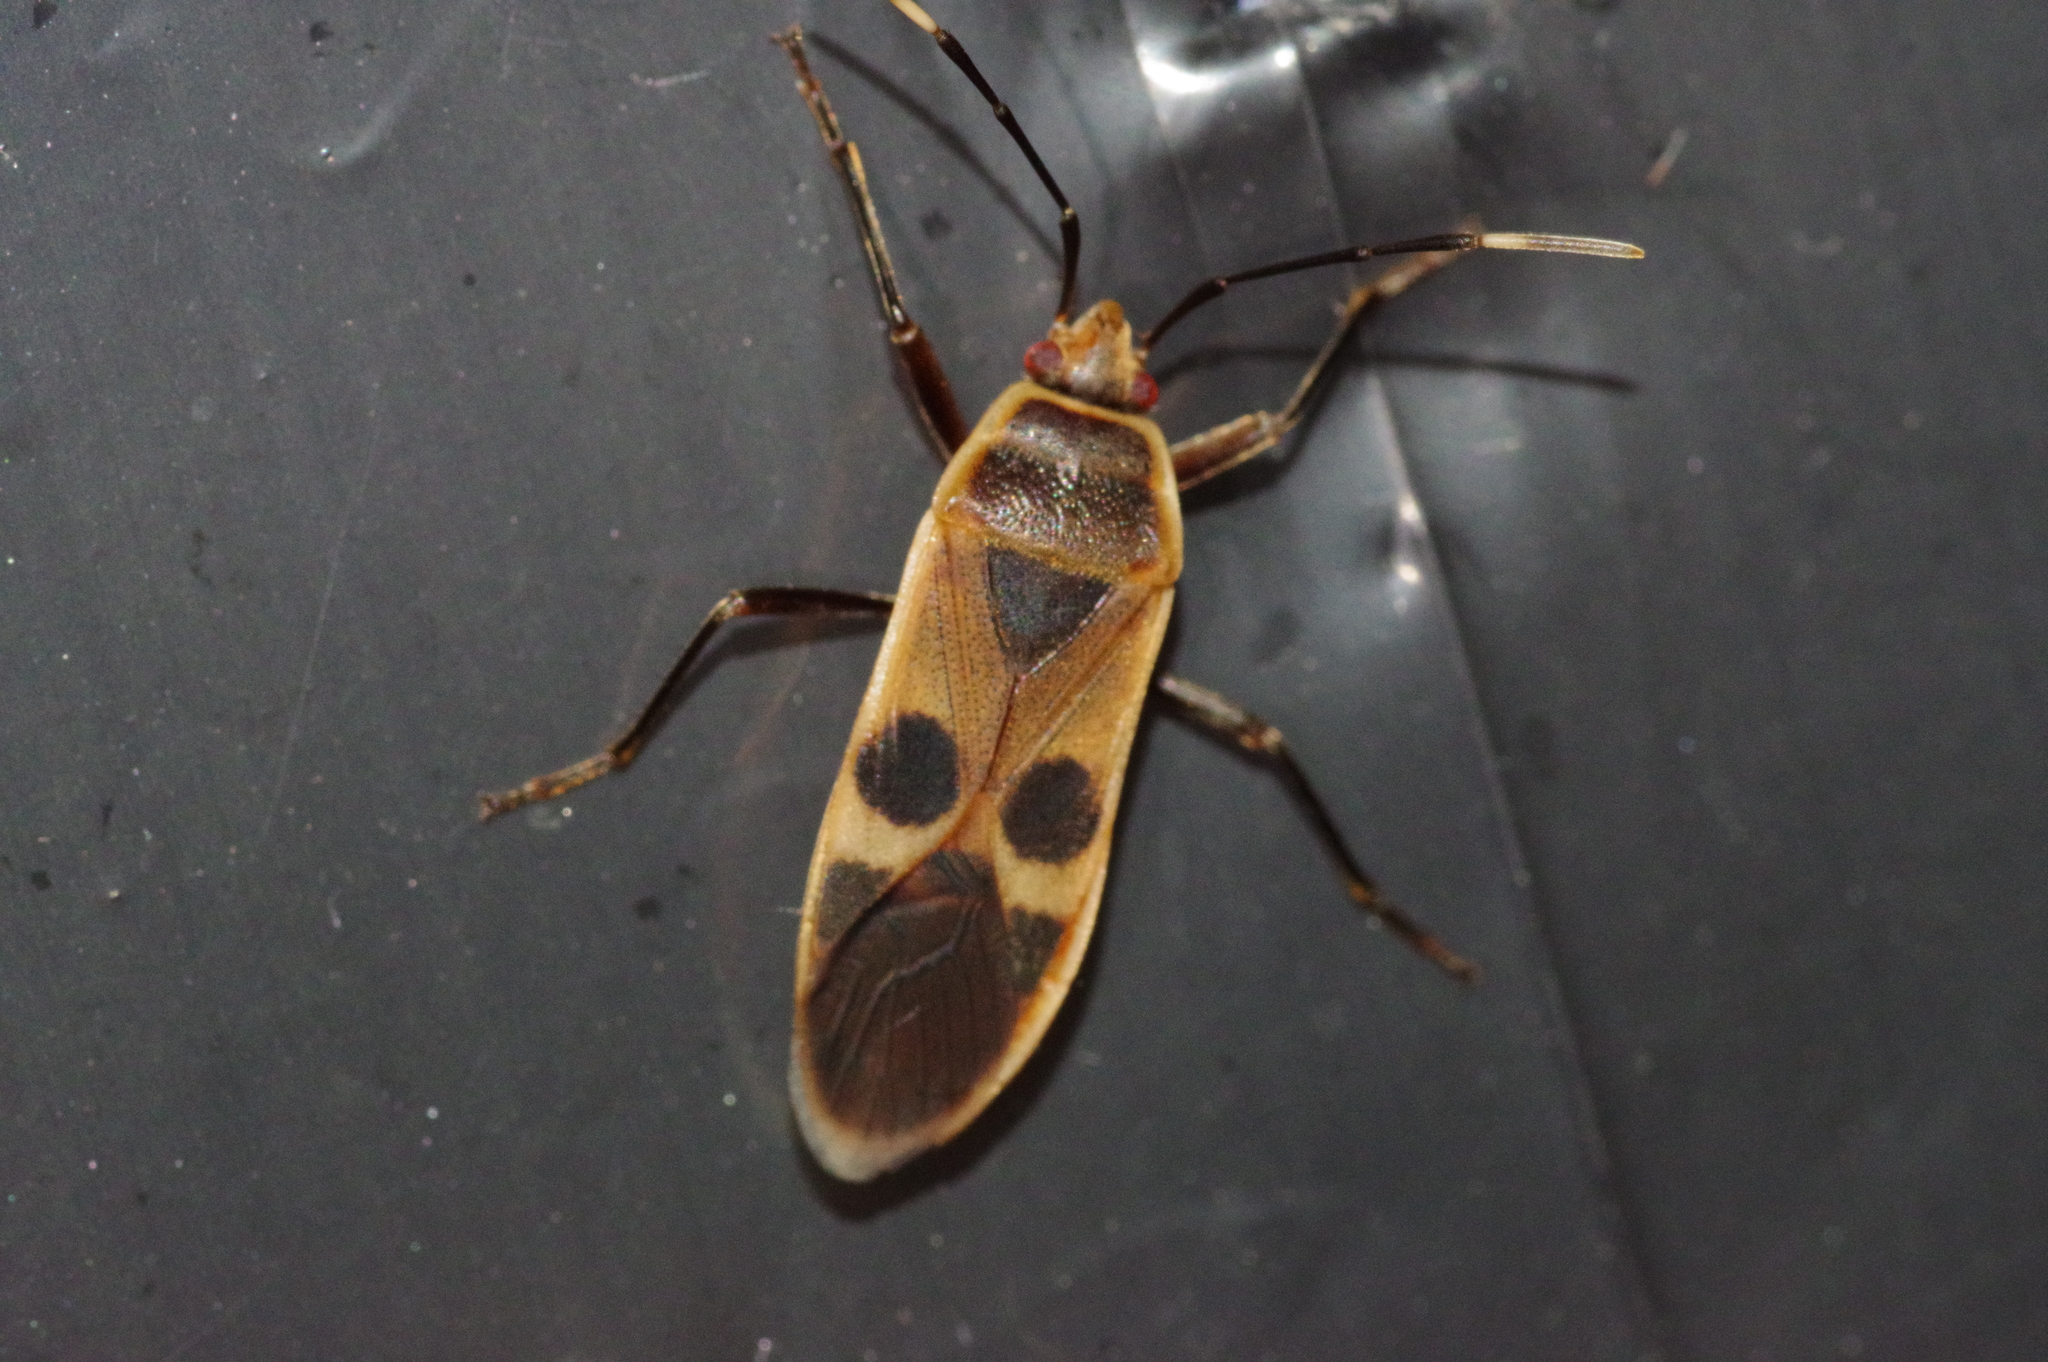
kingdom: Animalia
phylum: Arthropoda
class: Insecta
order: Hemiptera
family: Largidae
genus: Physopelta
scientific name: Physopelta gutta
